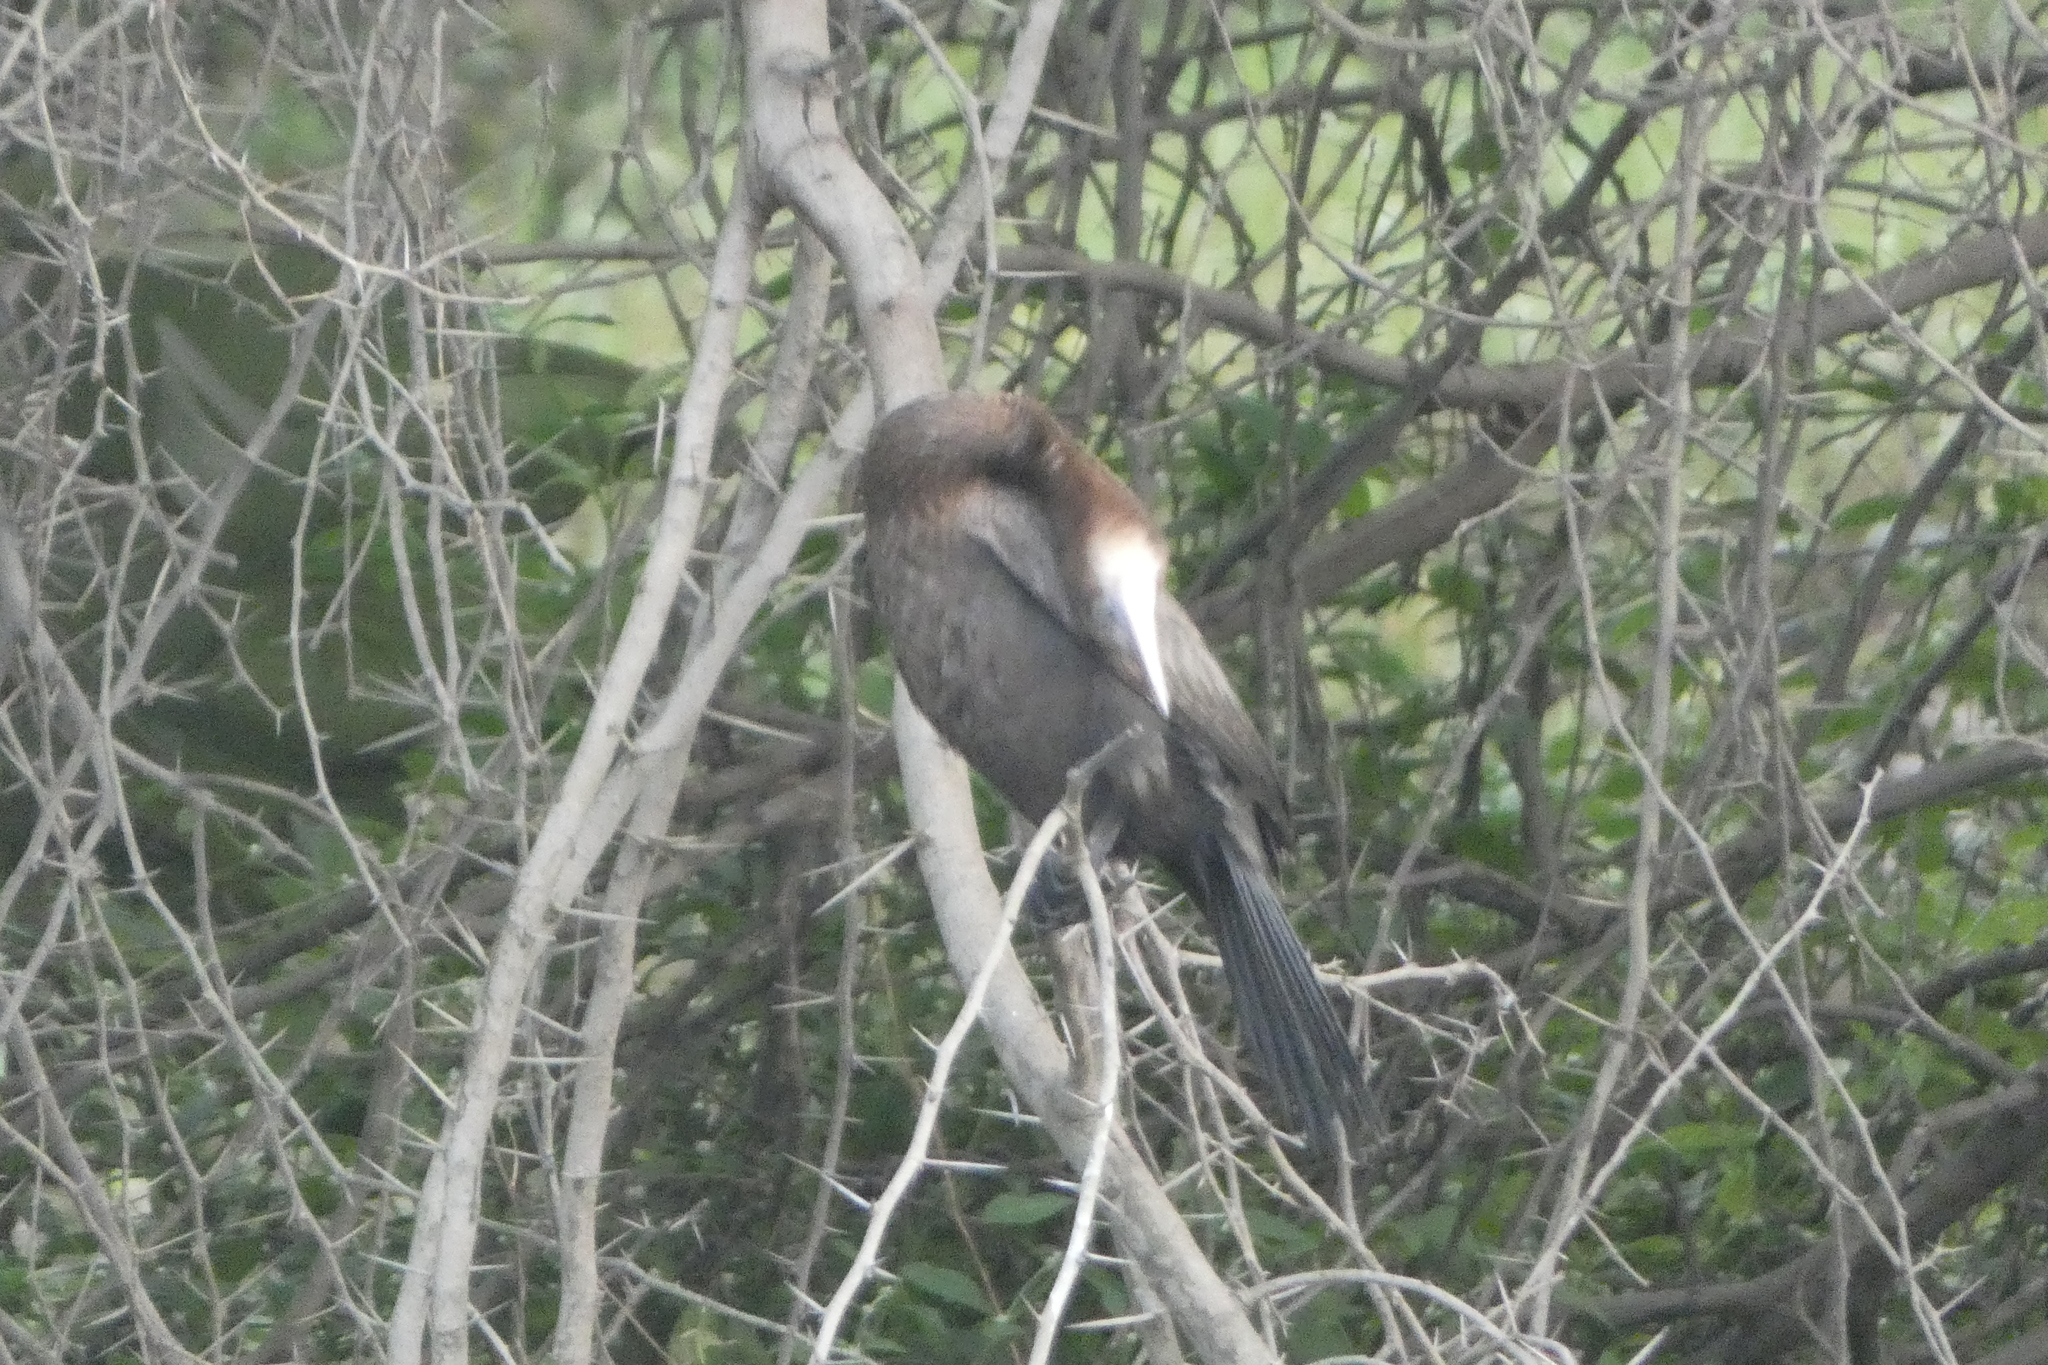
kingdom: Animalia
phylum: Chordata
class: Aves
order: Suliformes
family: Phalacrocoracidae
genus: Microcarbo
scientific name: Microcarbo niger
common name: Little cormorant
